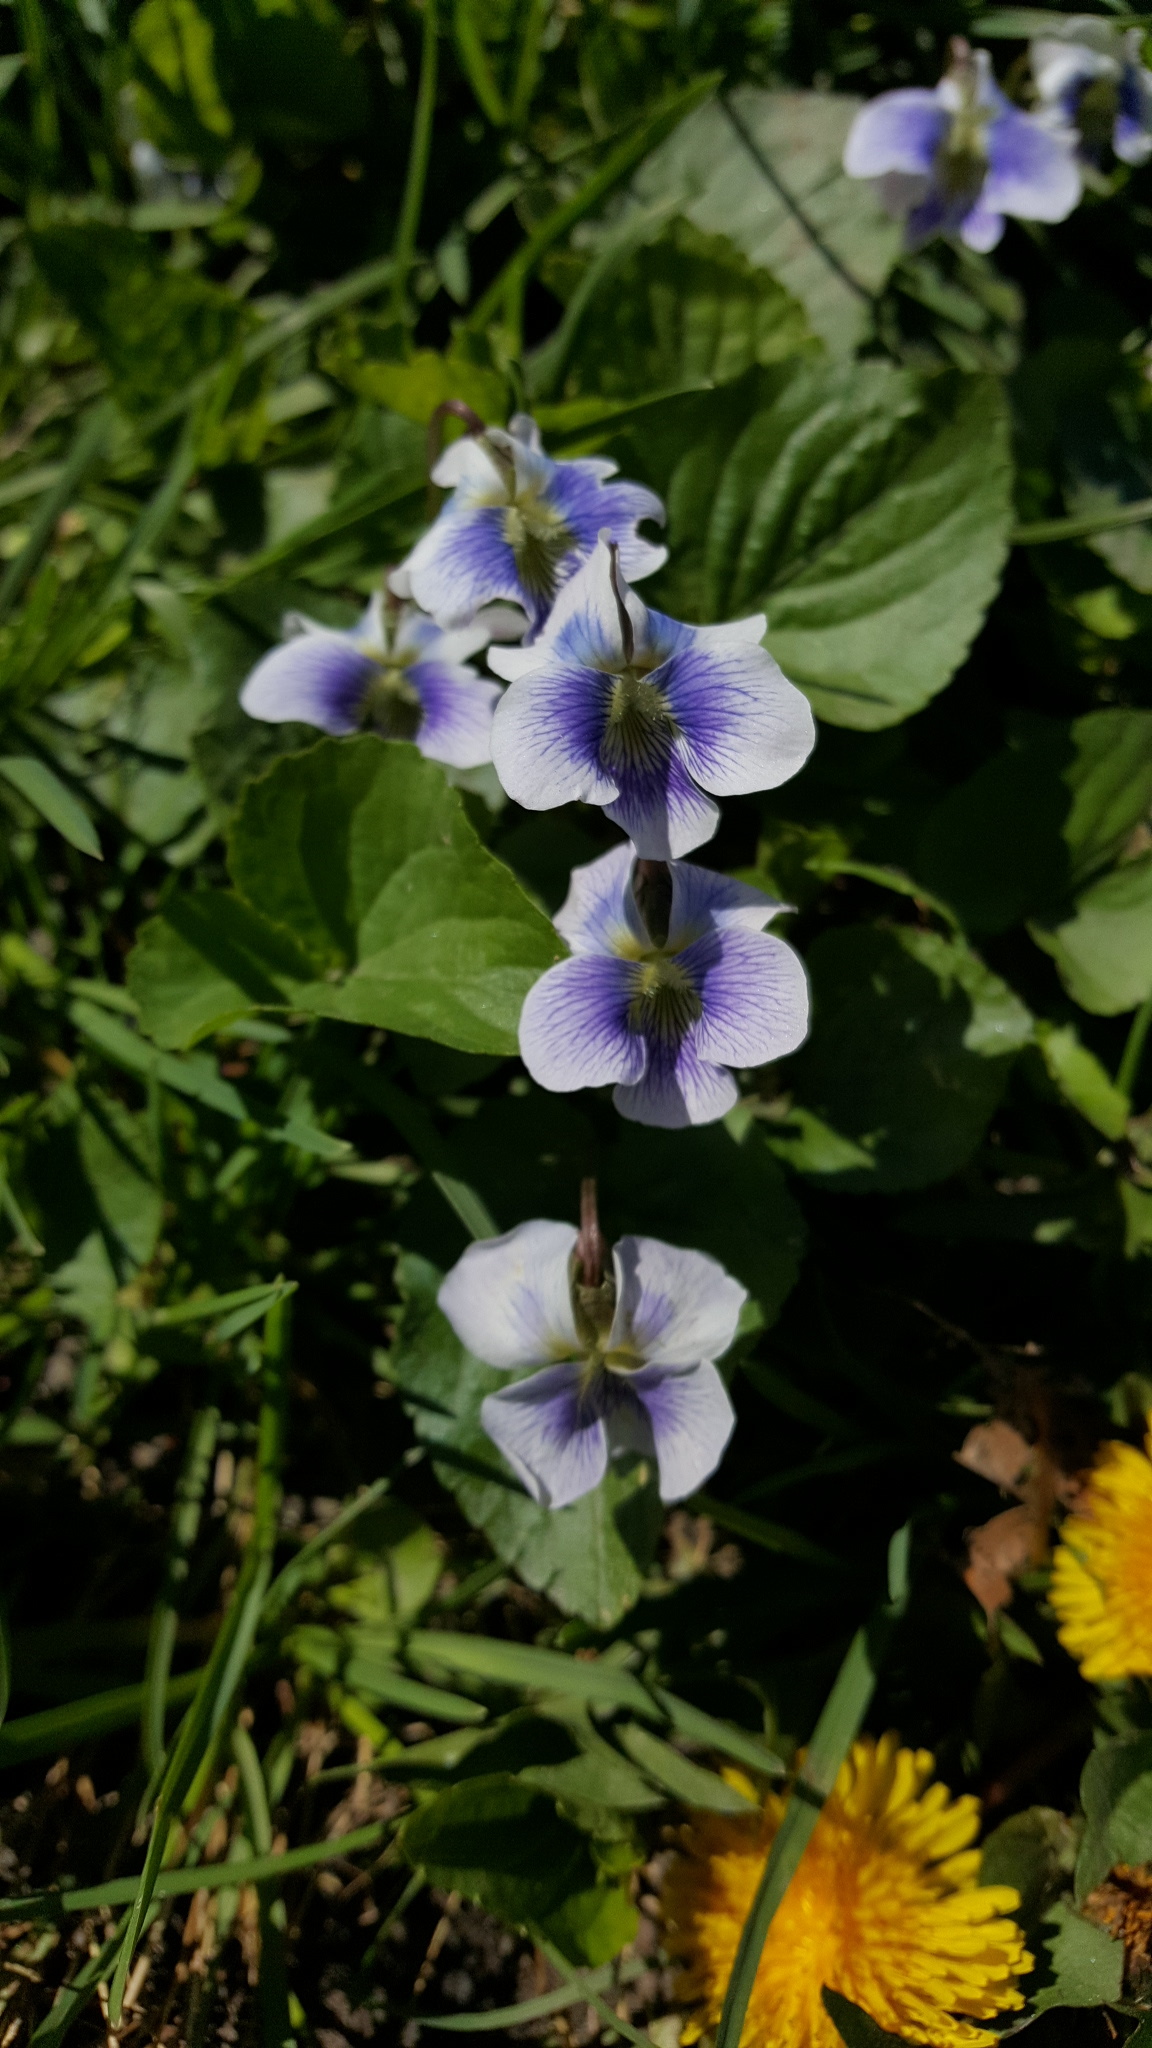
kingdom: Plantae
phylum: Tracheophyta
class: Magnoliopsida
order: Malpighiales
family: Violaceae
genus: Viola
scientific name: Viola sororia
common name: Dooryard violet
